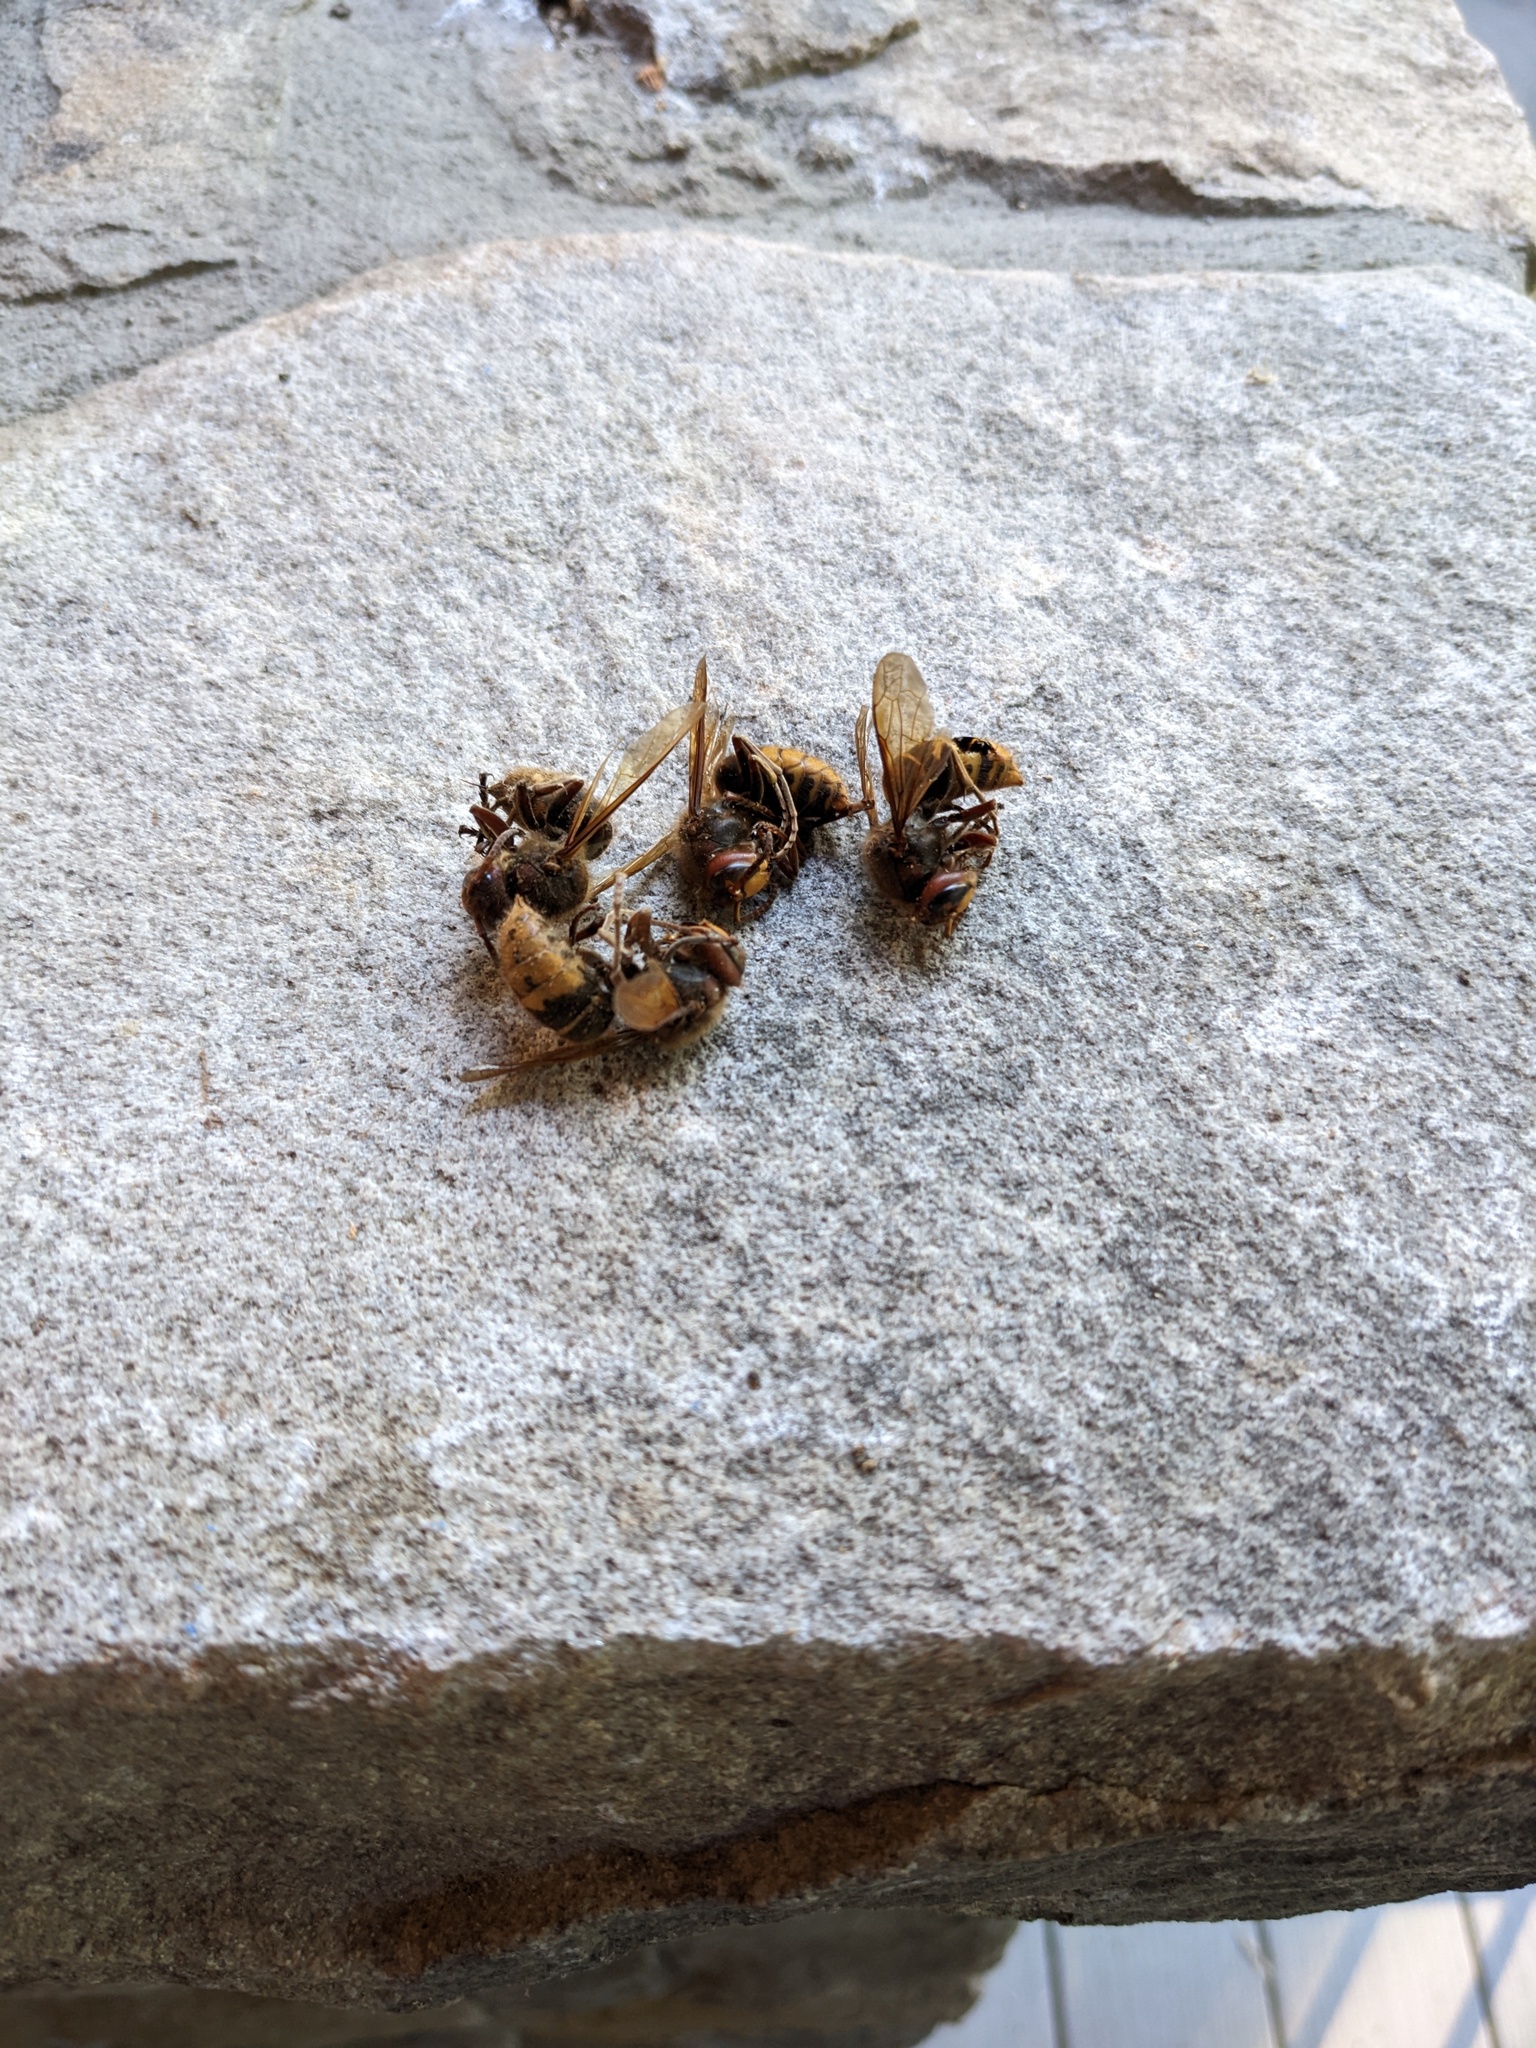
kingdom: Animalia
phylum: Arthropoda
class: Insecta
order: Hymenoptera
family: Vespidae
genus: Vespa
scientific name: Vespa crabro
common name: Hornet
